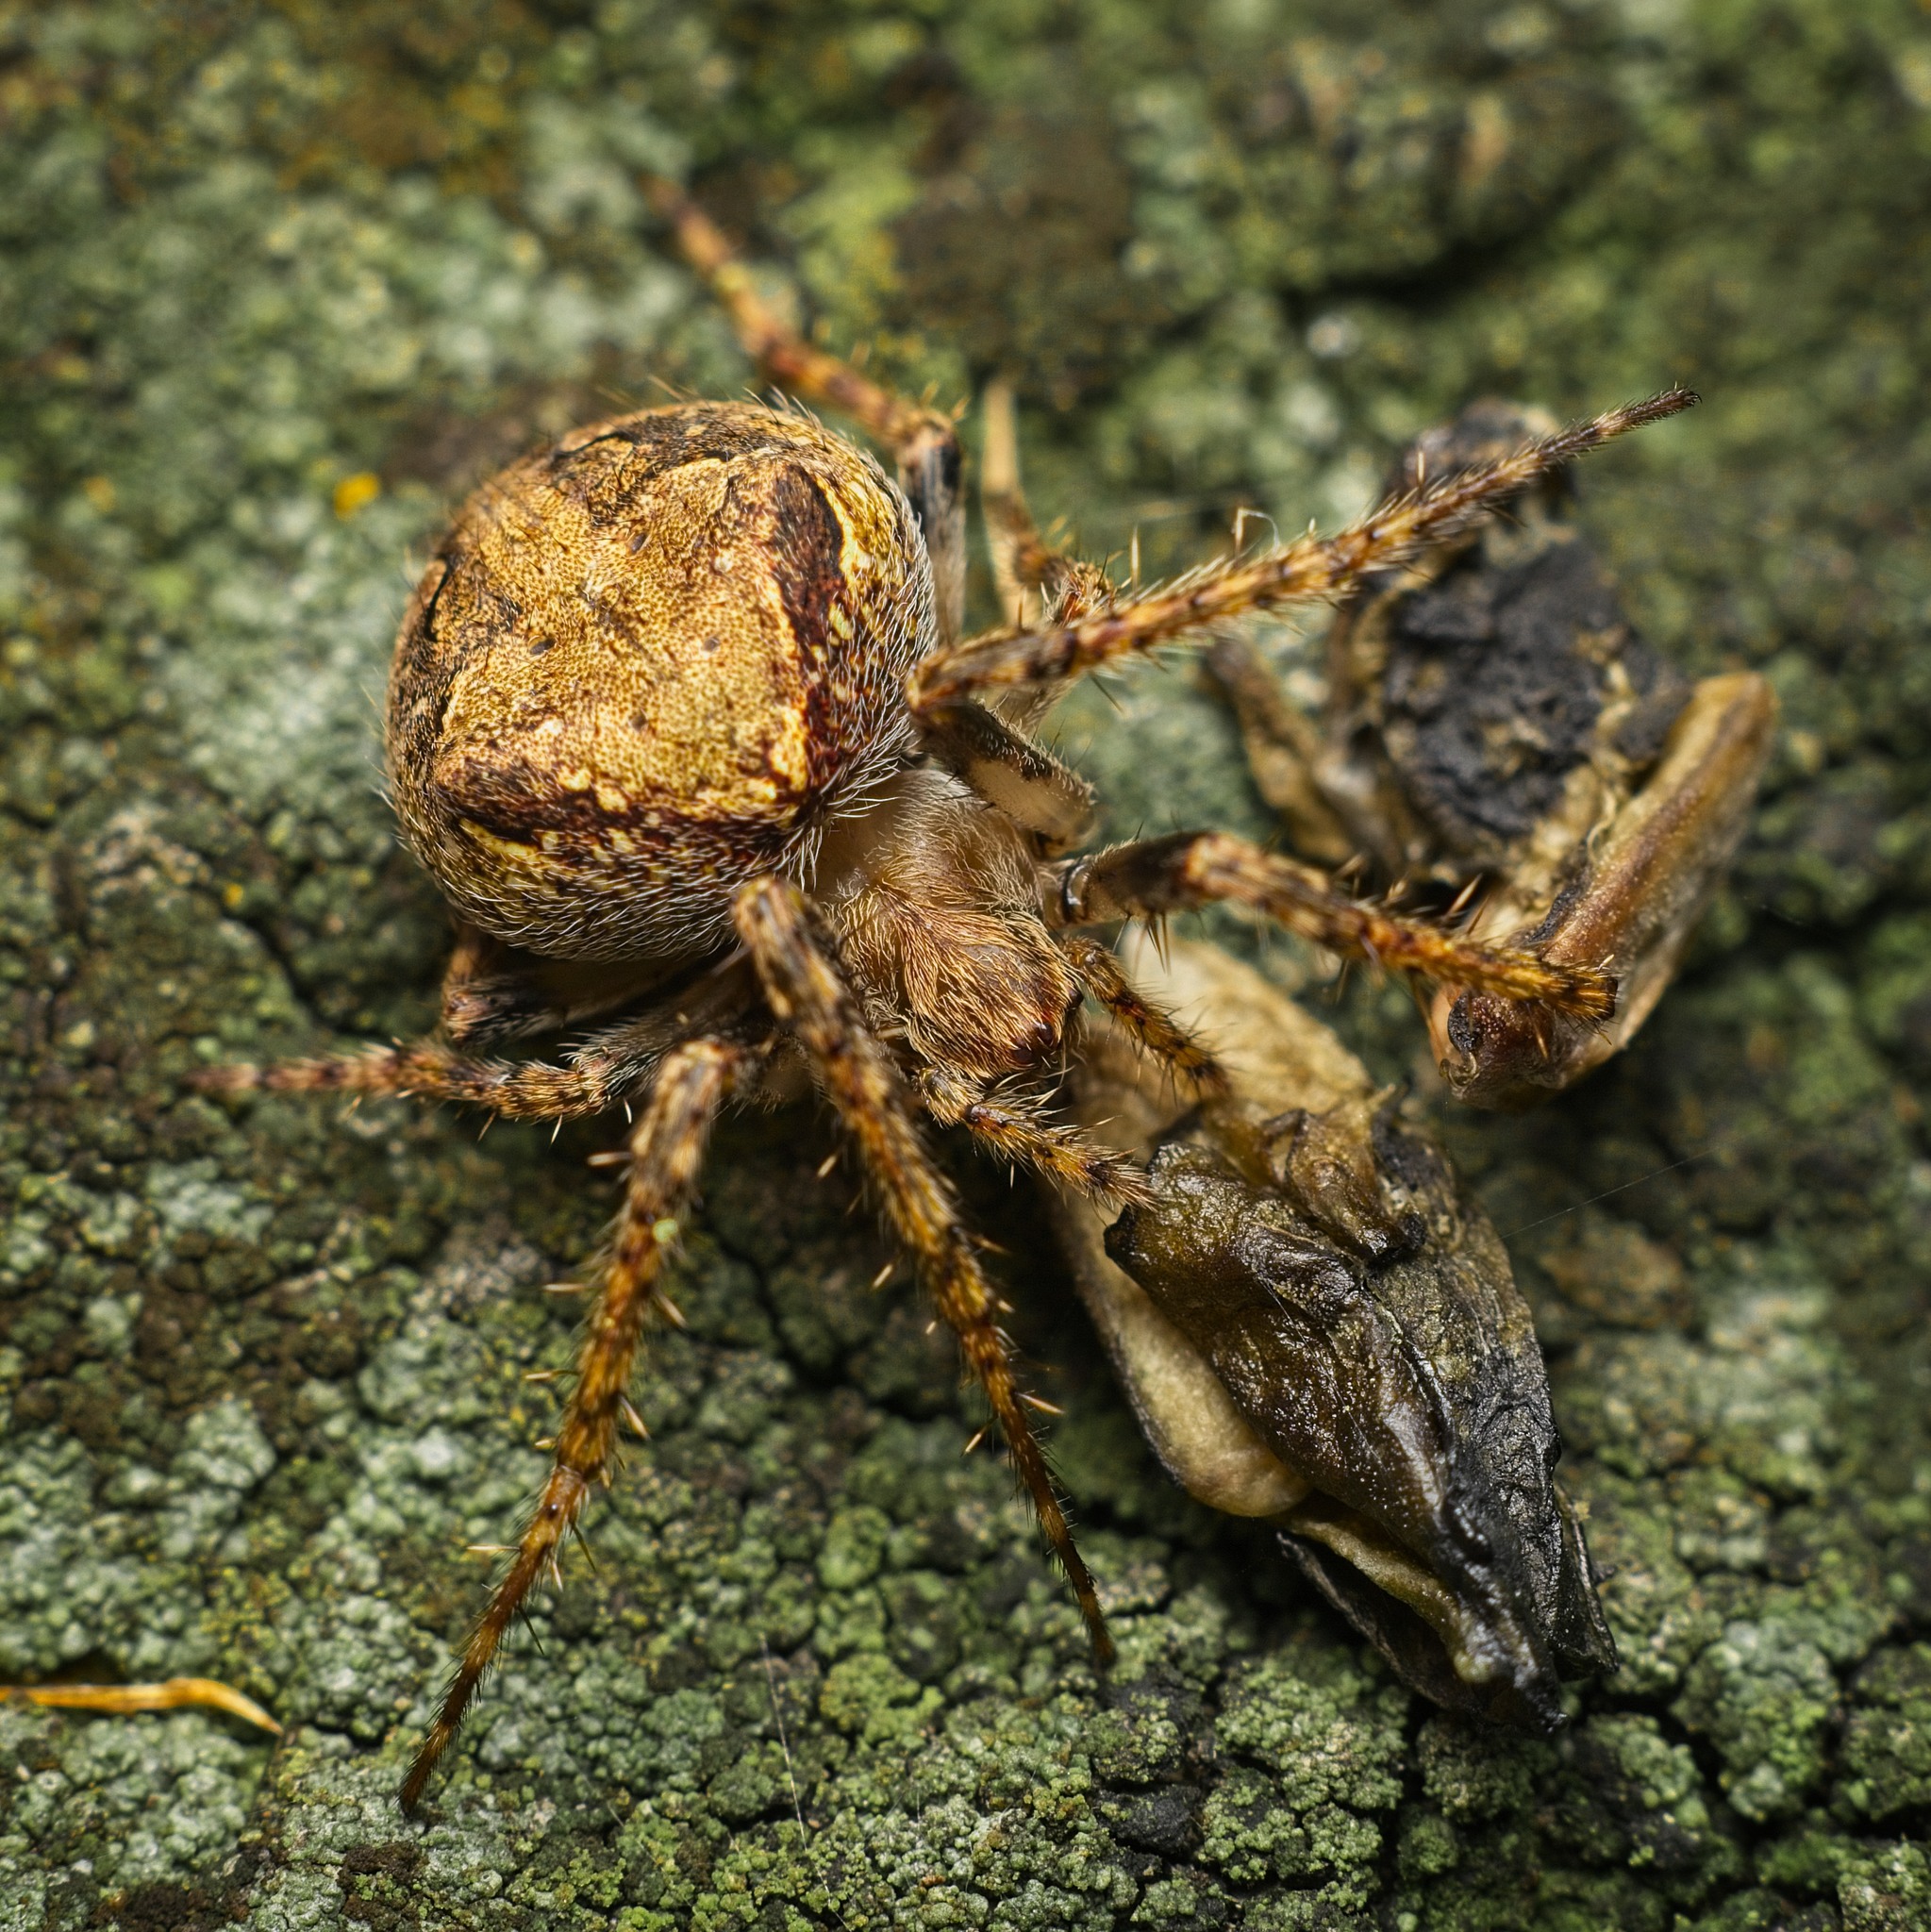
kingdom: Animalia
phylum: Arthropoda
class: Arachnida
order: Araneae
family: Araneidae
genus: Cryptaranea
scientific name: Cryptaranea albolineata
